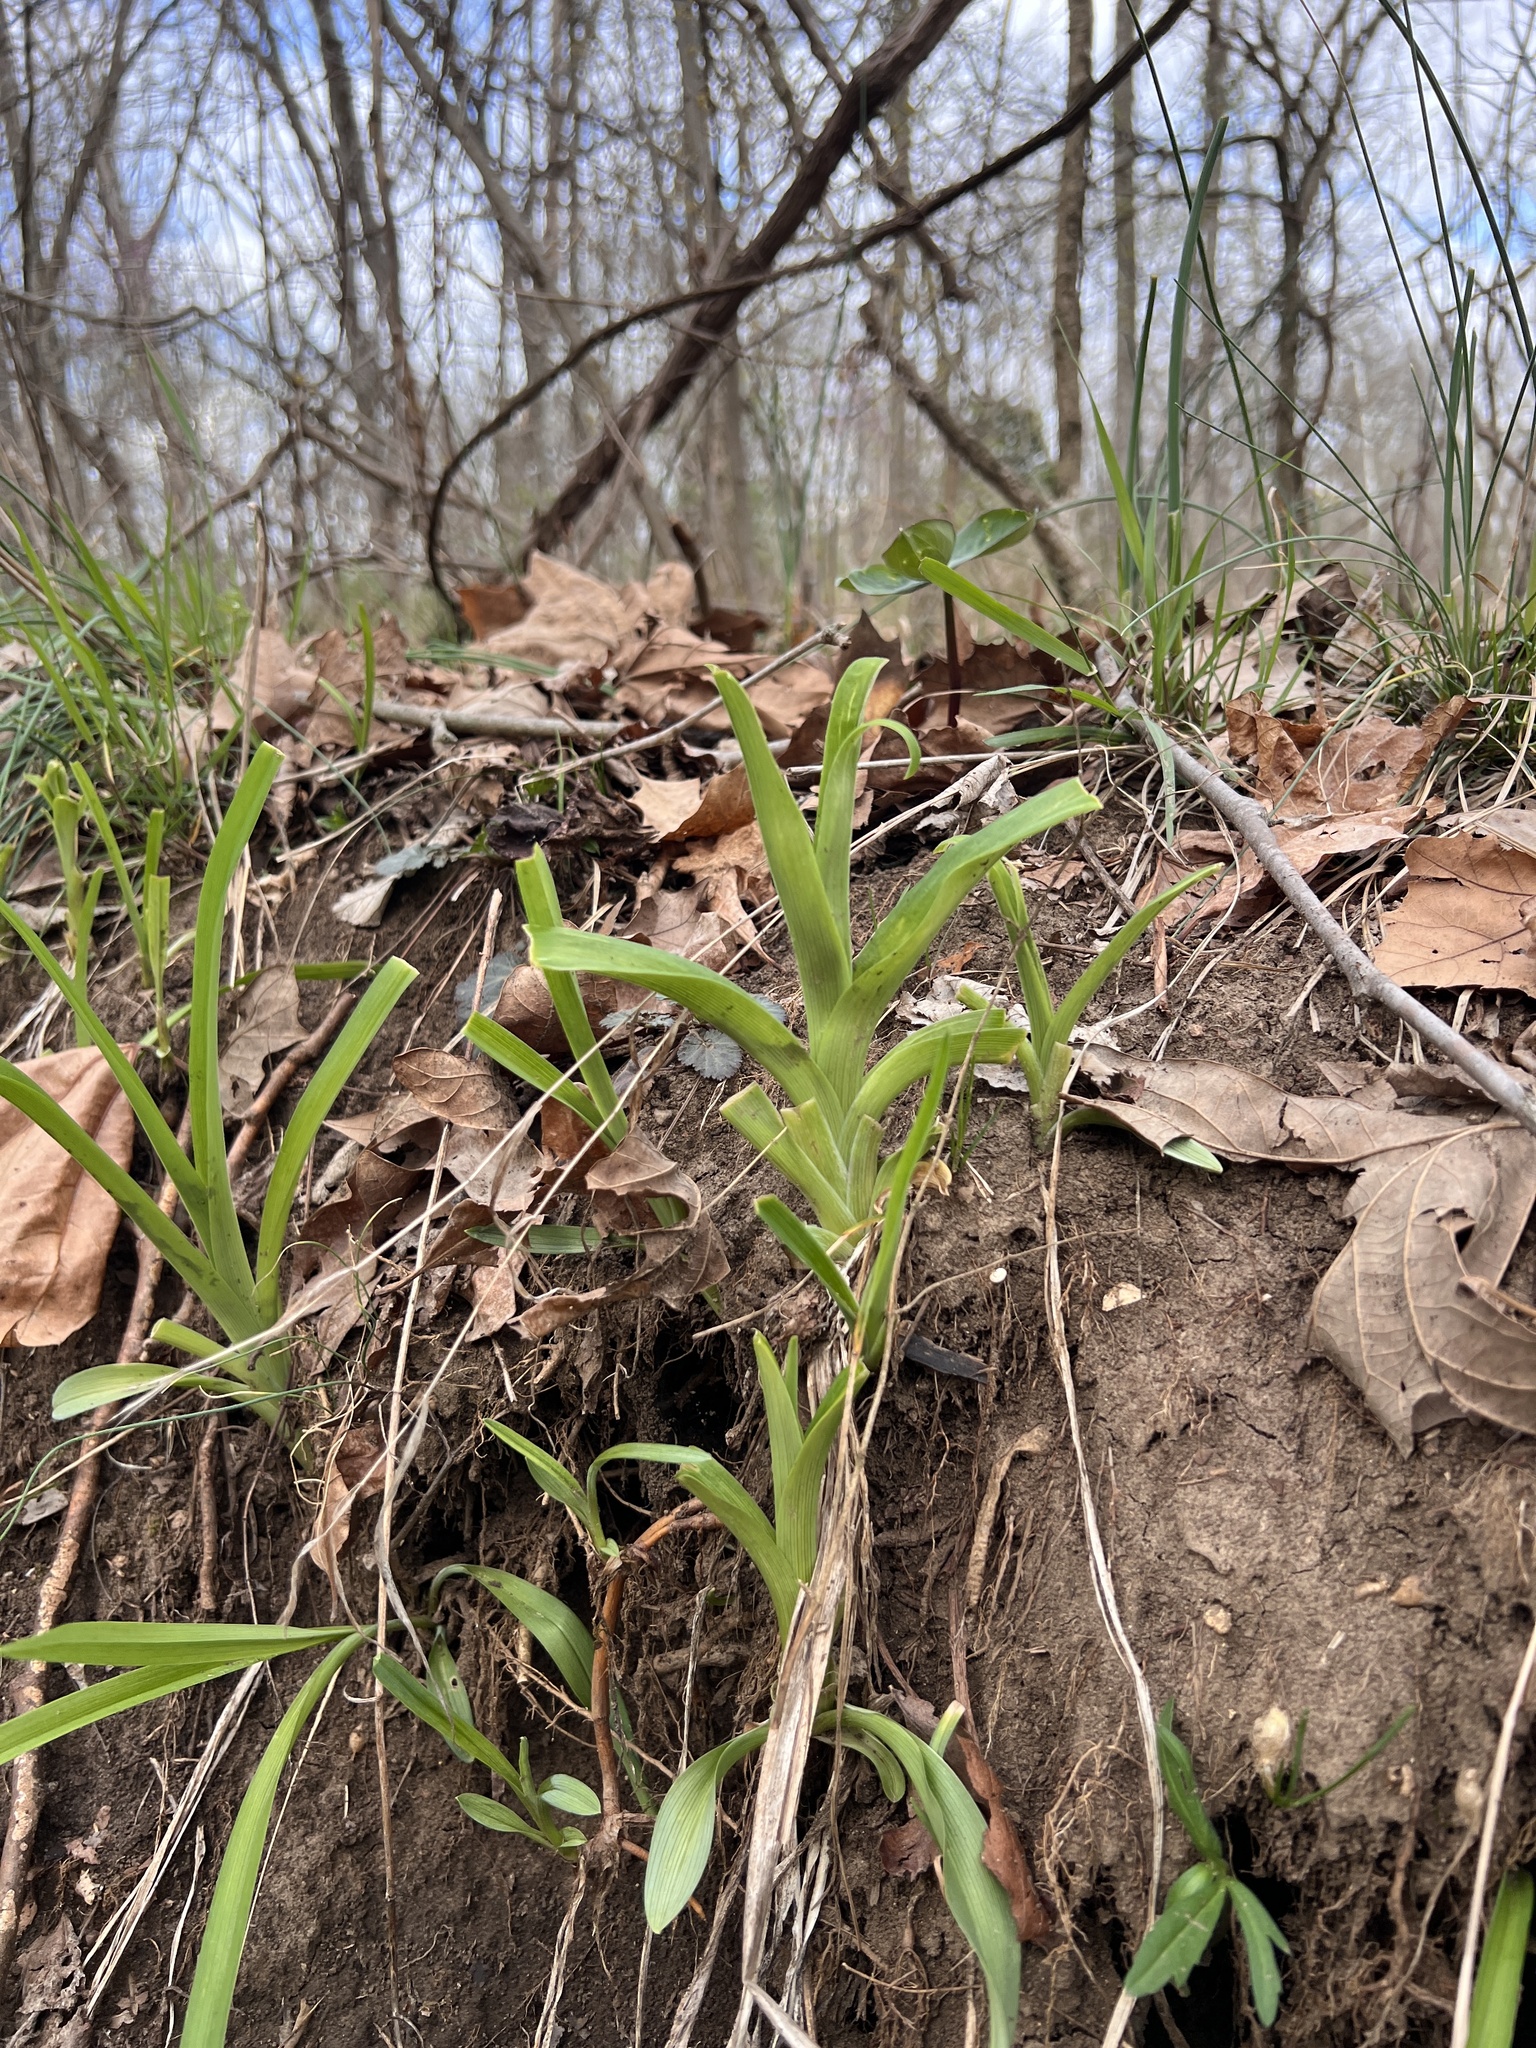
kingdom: Plantae
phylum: Tracheophyta
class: Liliopsida
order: Asparagales
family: Asphodelaceae
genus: Hemerocallis
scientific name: Hemerocallis fulva
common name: Orange day-lily
